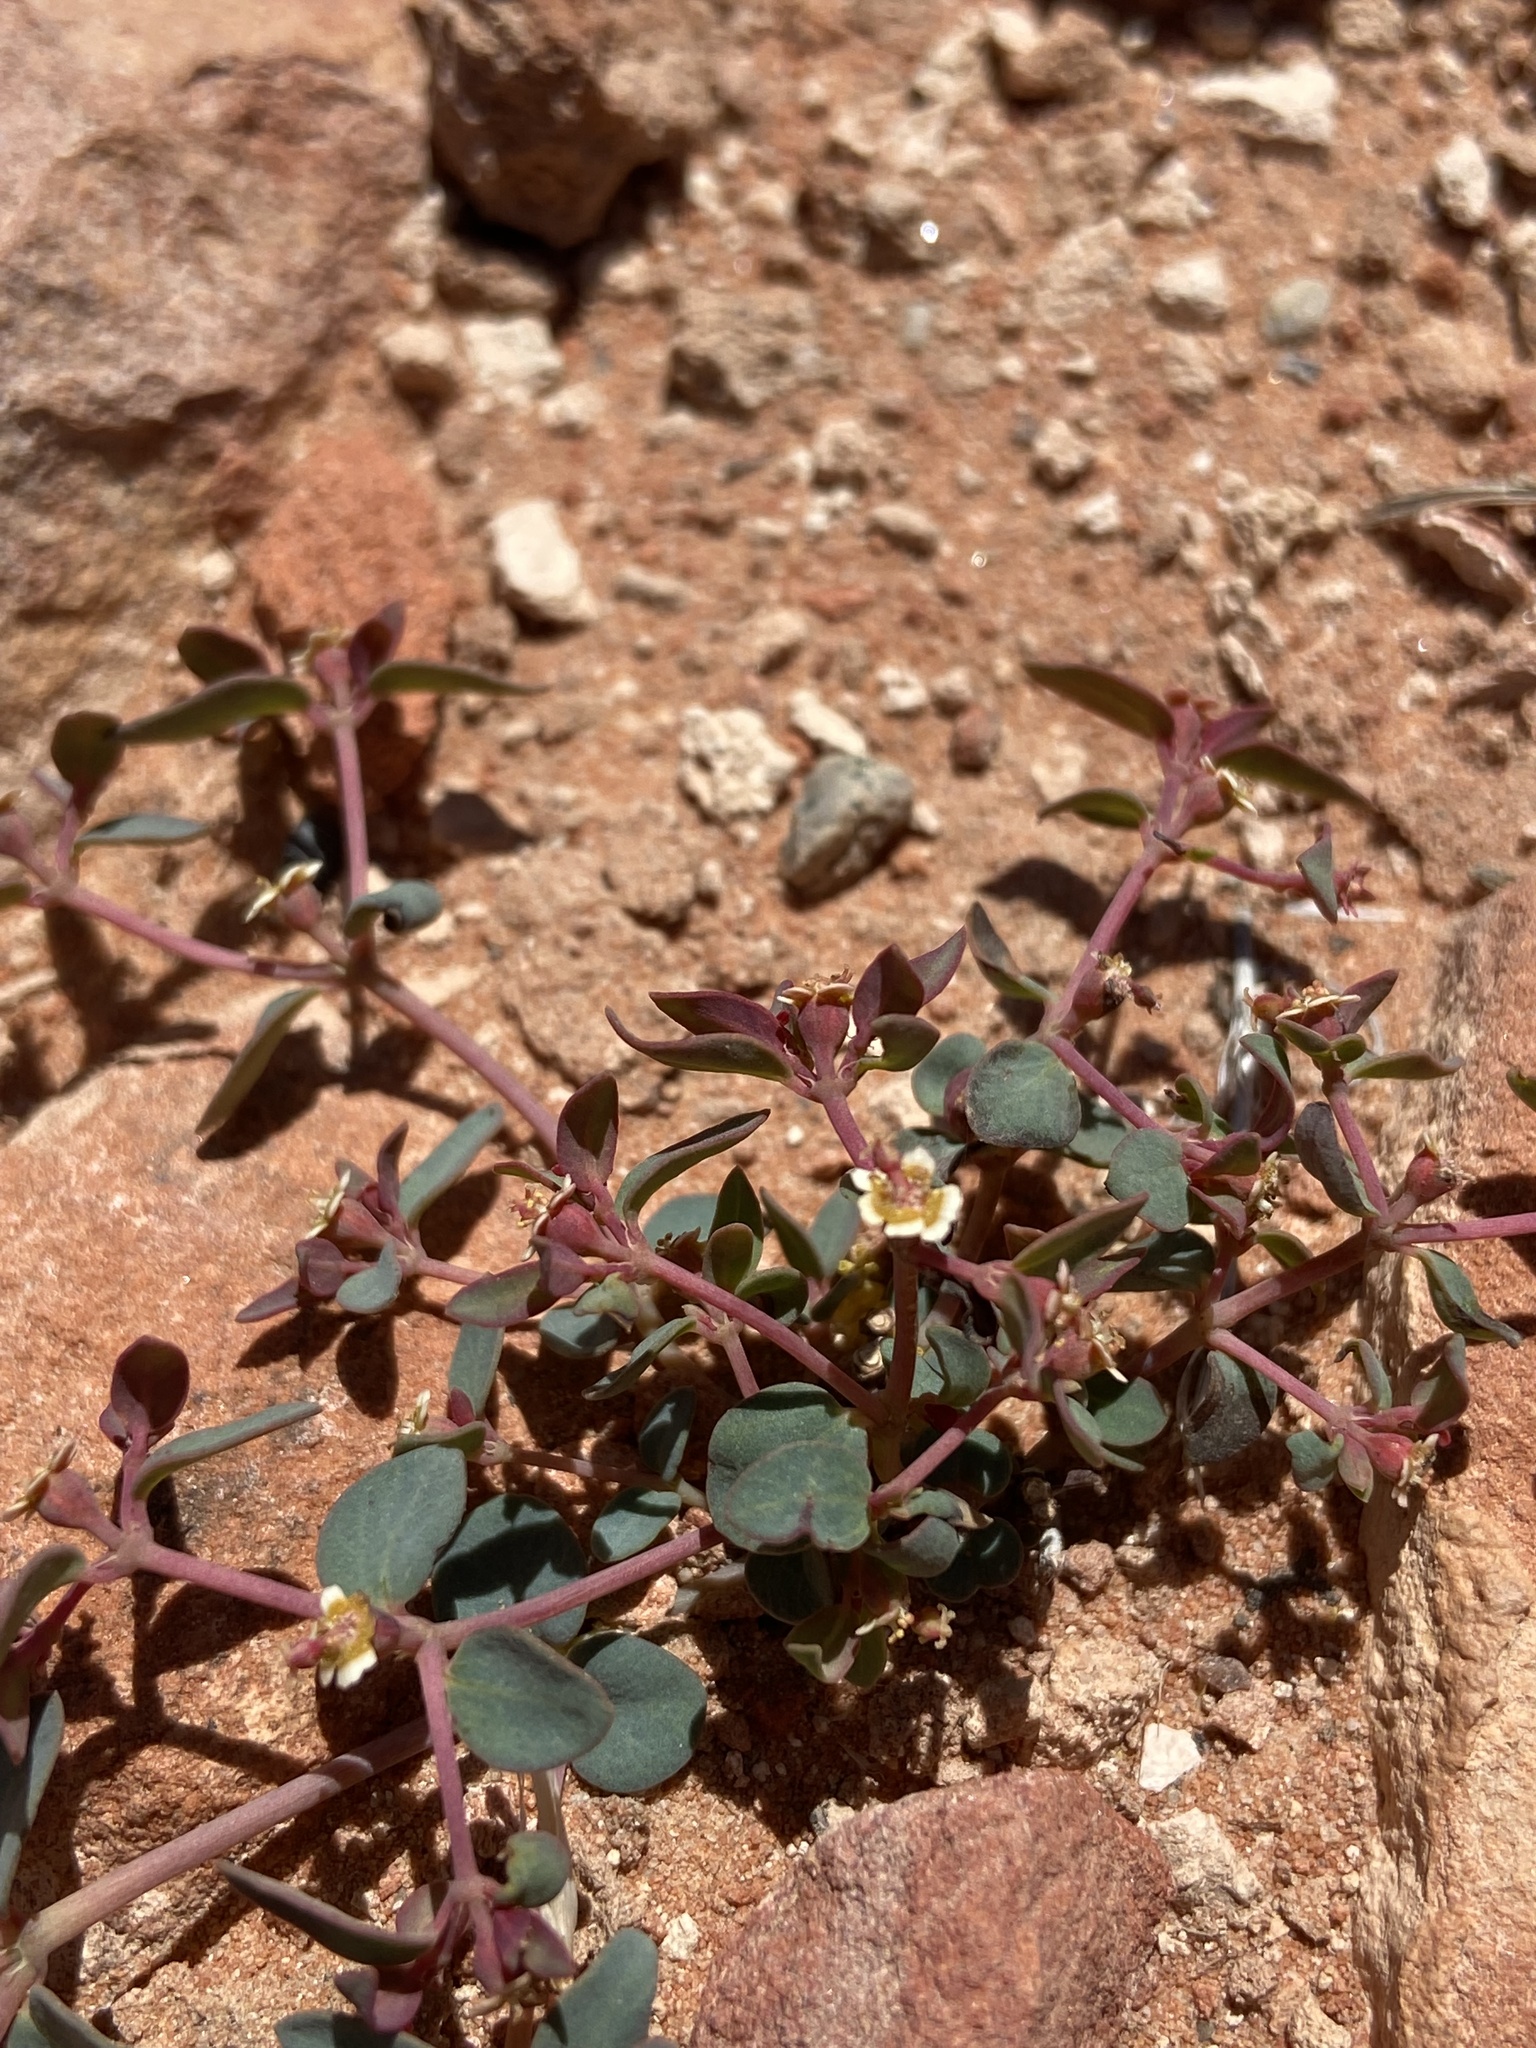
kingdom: Plantae
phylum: Tracheophyta
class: Magnoliopsida
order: Malpighiales
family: Euphorbiaceae
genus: Euphorbia
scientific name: Euphorbia fendleri
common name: Fendler's euphorbia
